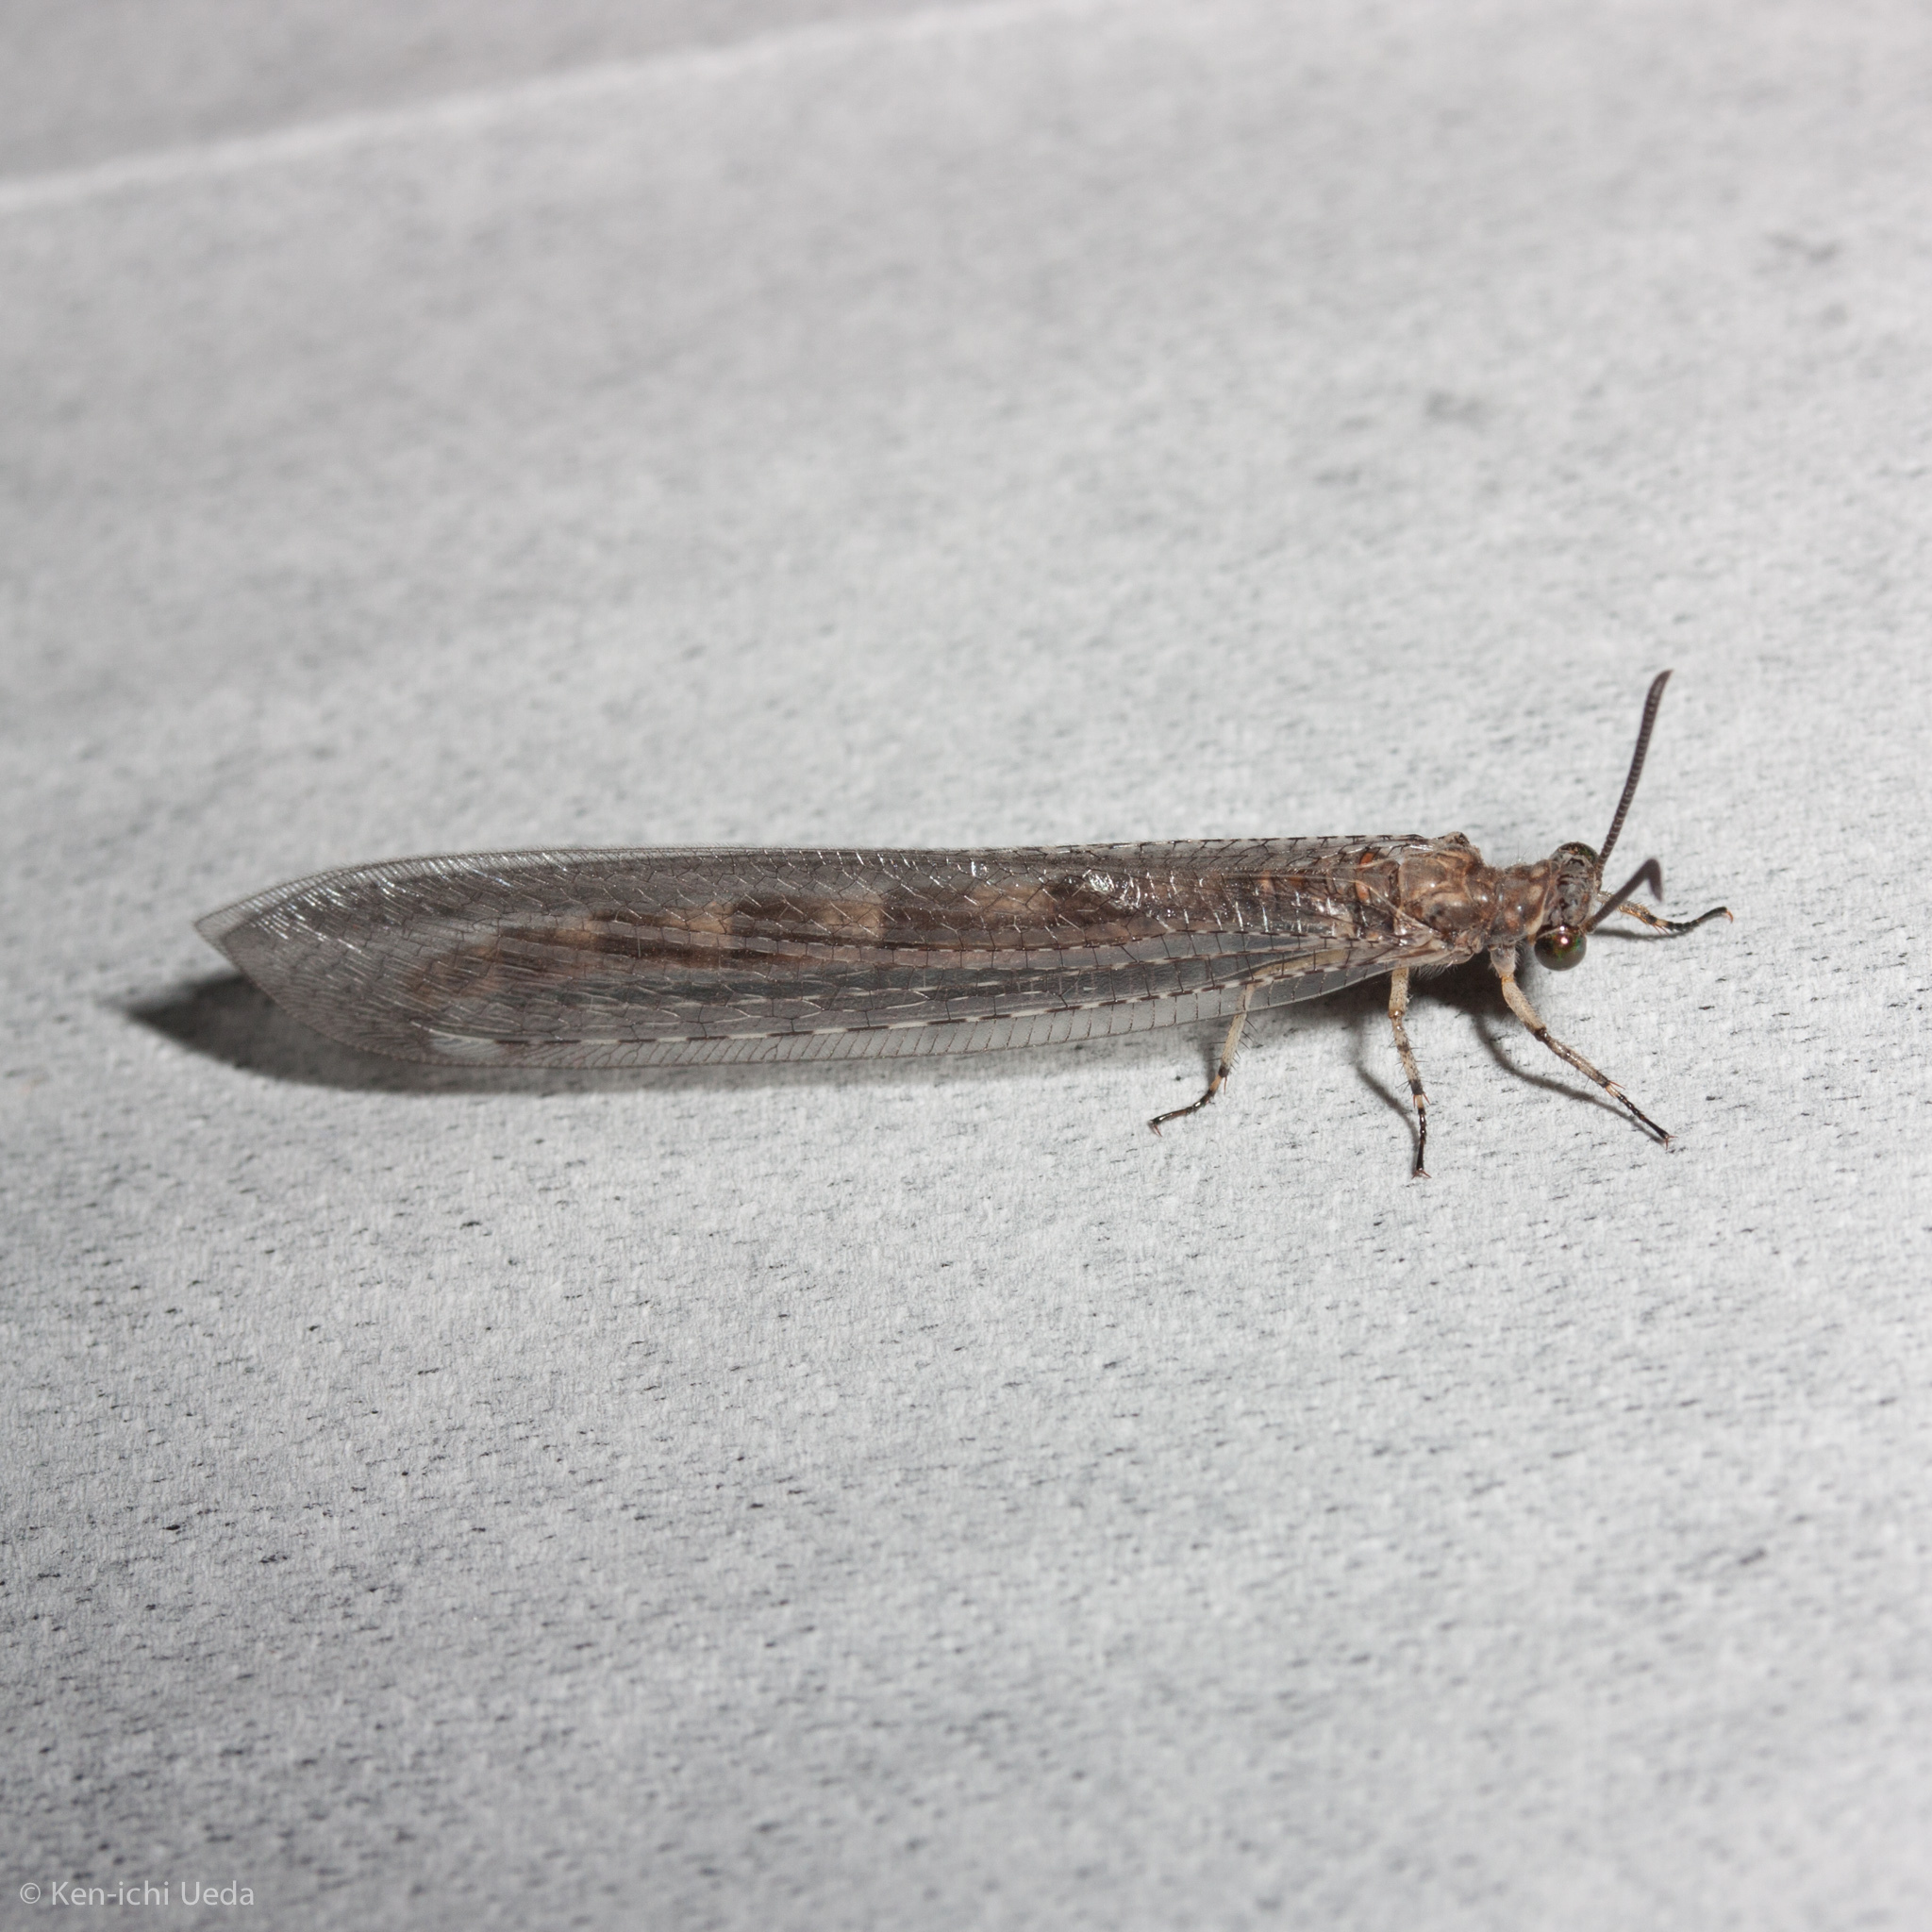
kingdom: Animalia
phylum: Arthropoda
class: Insecta
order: Neuroptera
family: Myrmeleontidae
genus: Myrmeleon
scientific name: Myrmeleon immaculatus
